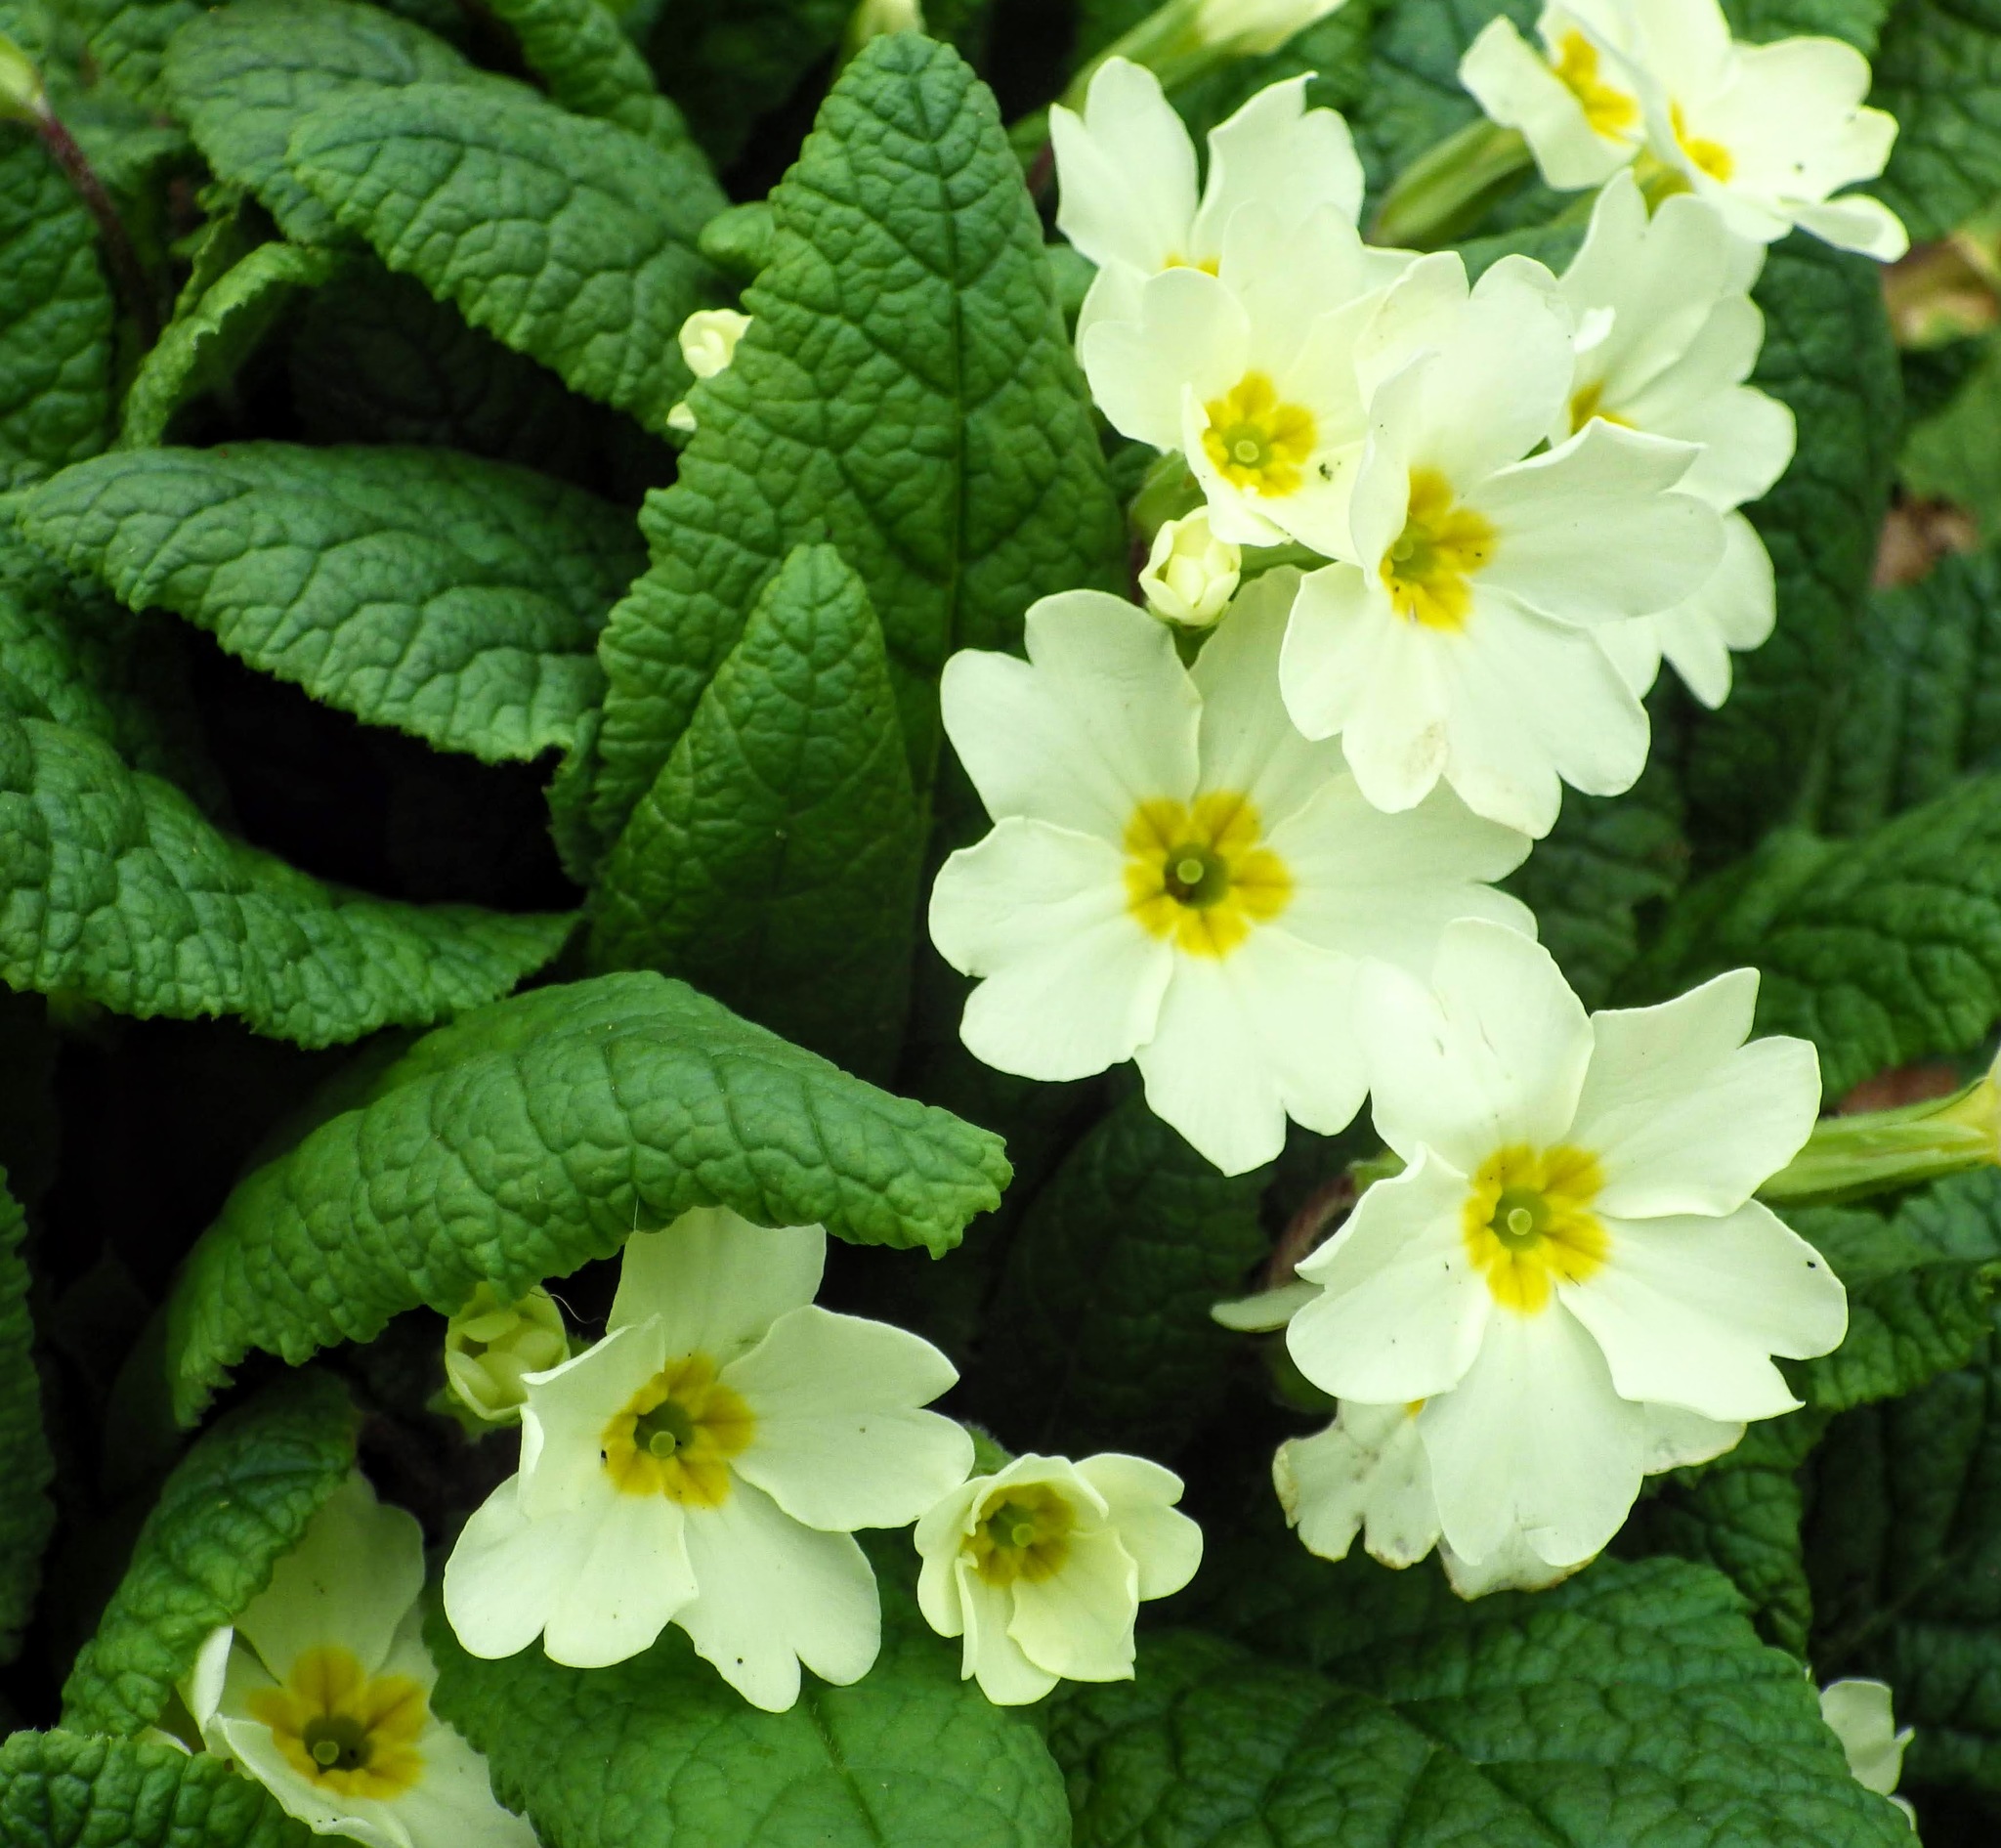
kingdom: Plantae
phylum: Tracheophyta
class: Magnoliopsida
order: Ericales
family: Primulaceae
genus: Primula
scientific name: Primula vulgaris
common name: Primrose
